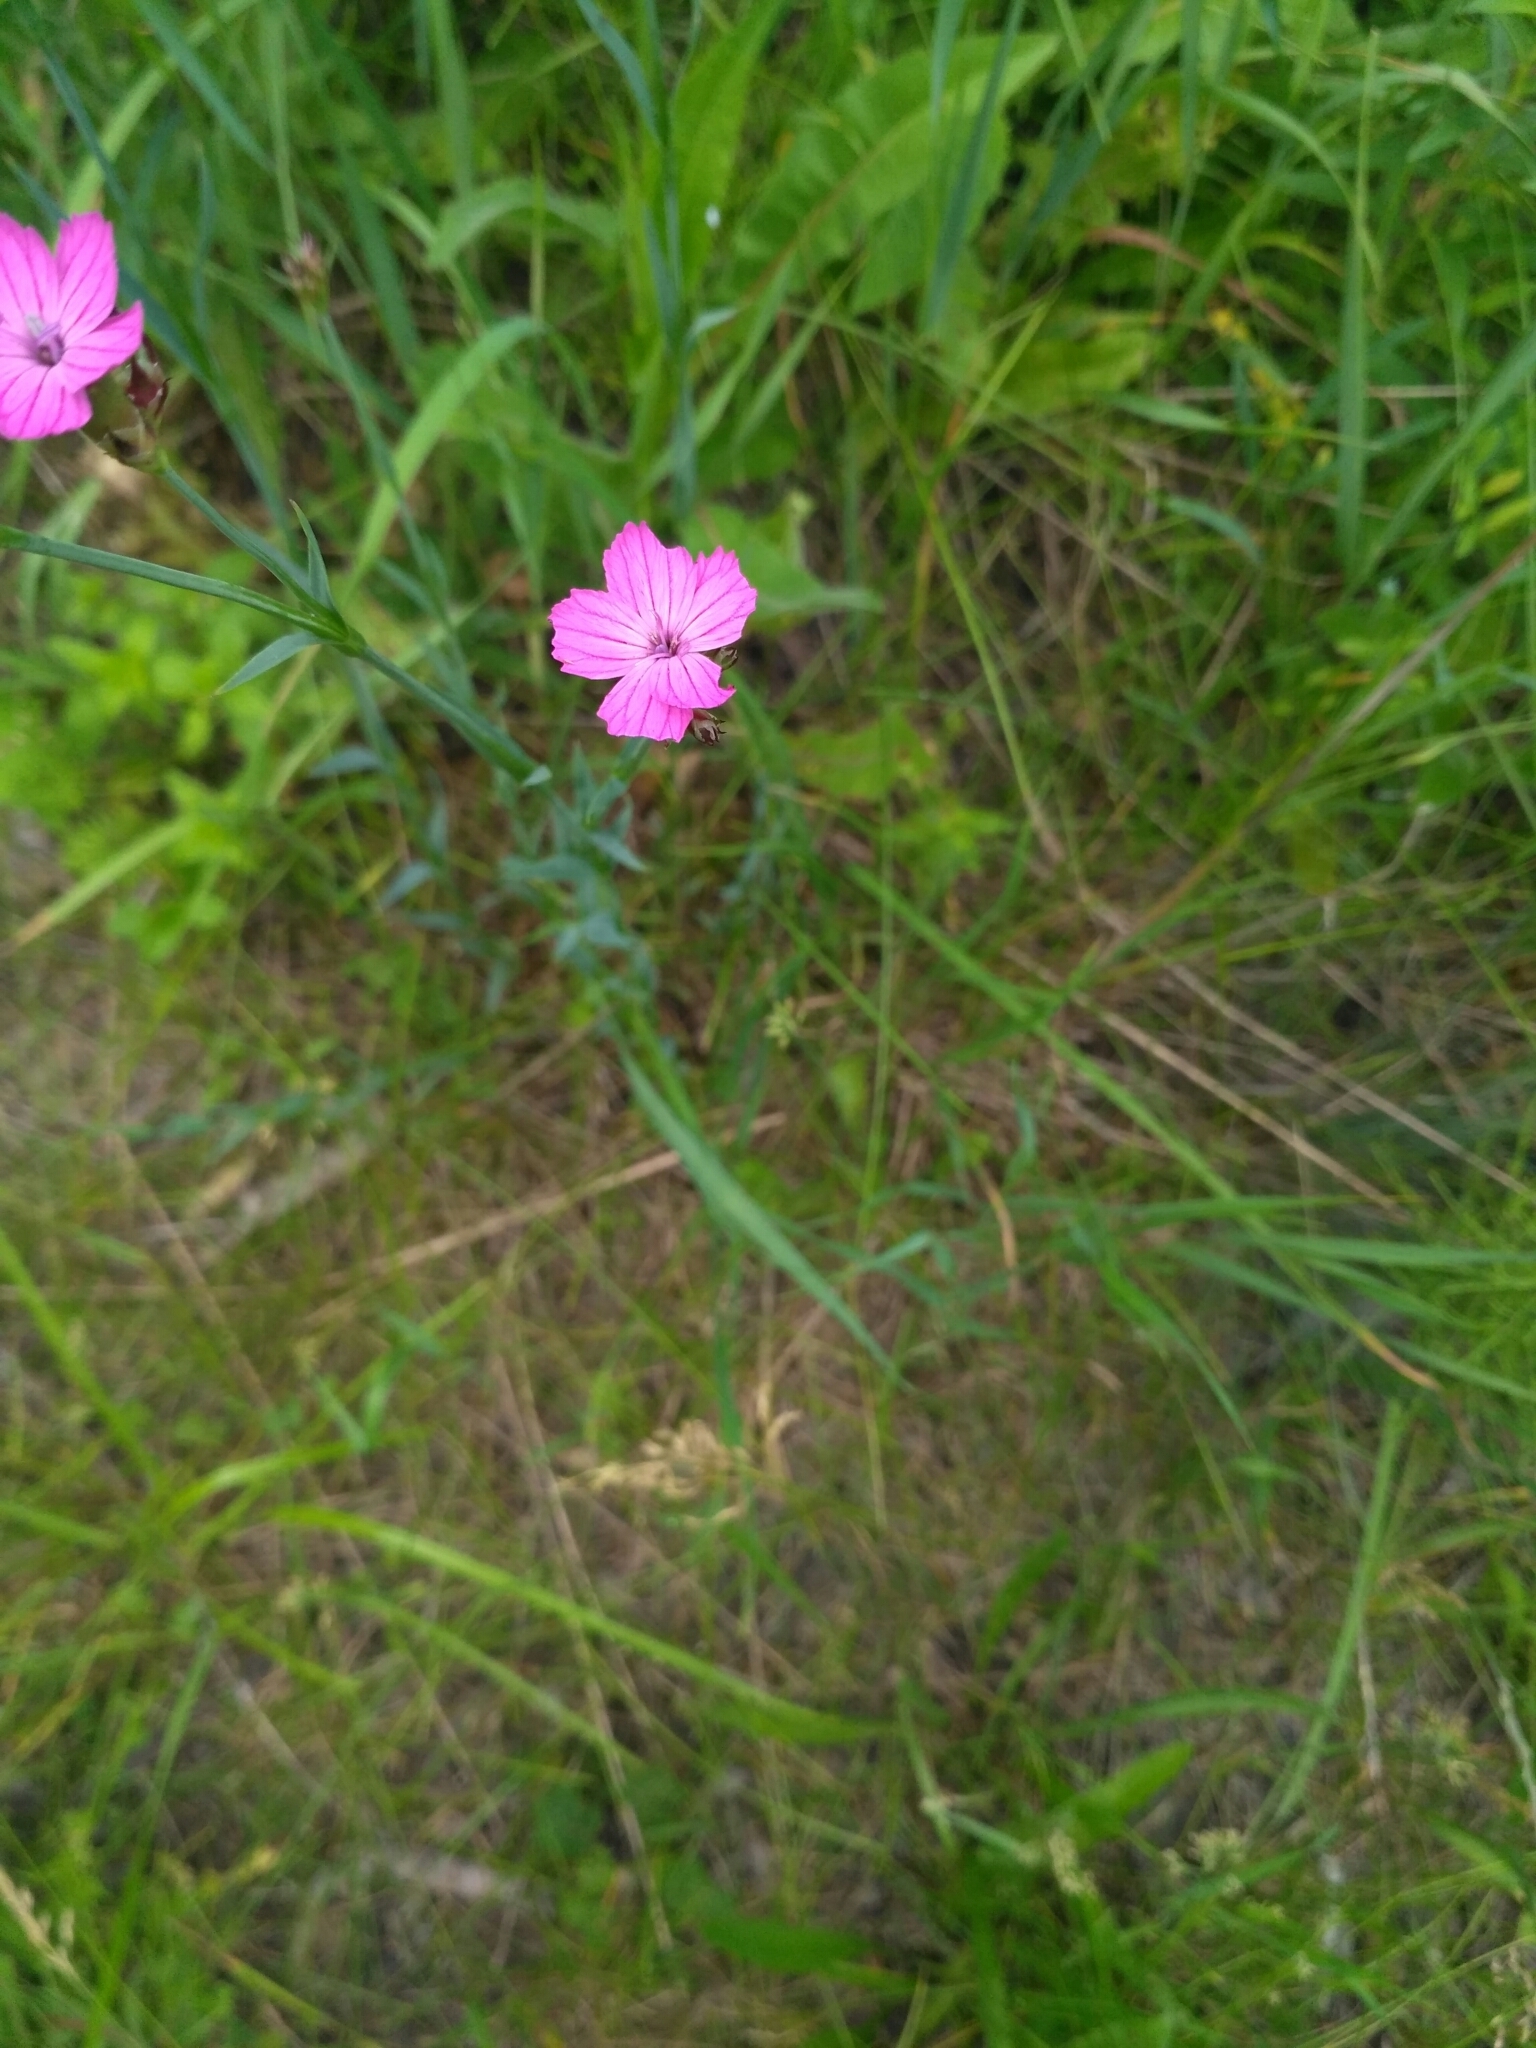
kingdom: Plantae
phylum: Tracheophyta
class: Magnoliopsida
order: Caryophyllales
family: Caryophyllaceae
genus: Dianthus
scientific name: Dianthus membranaceus
